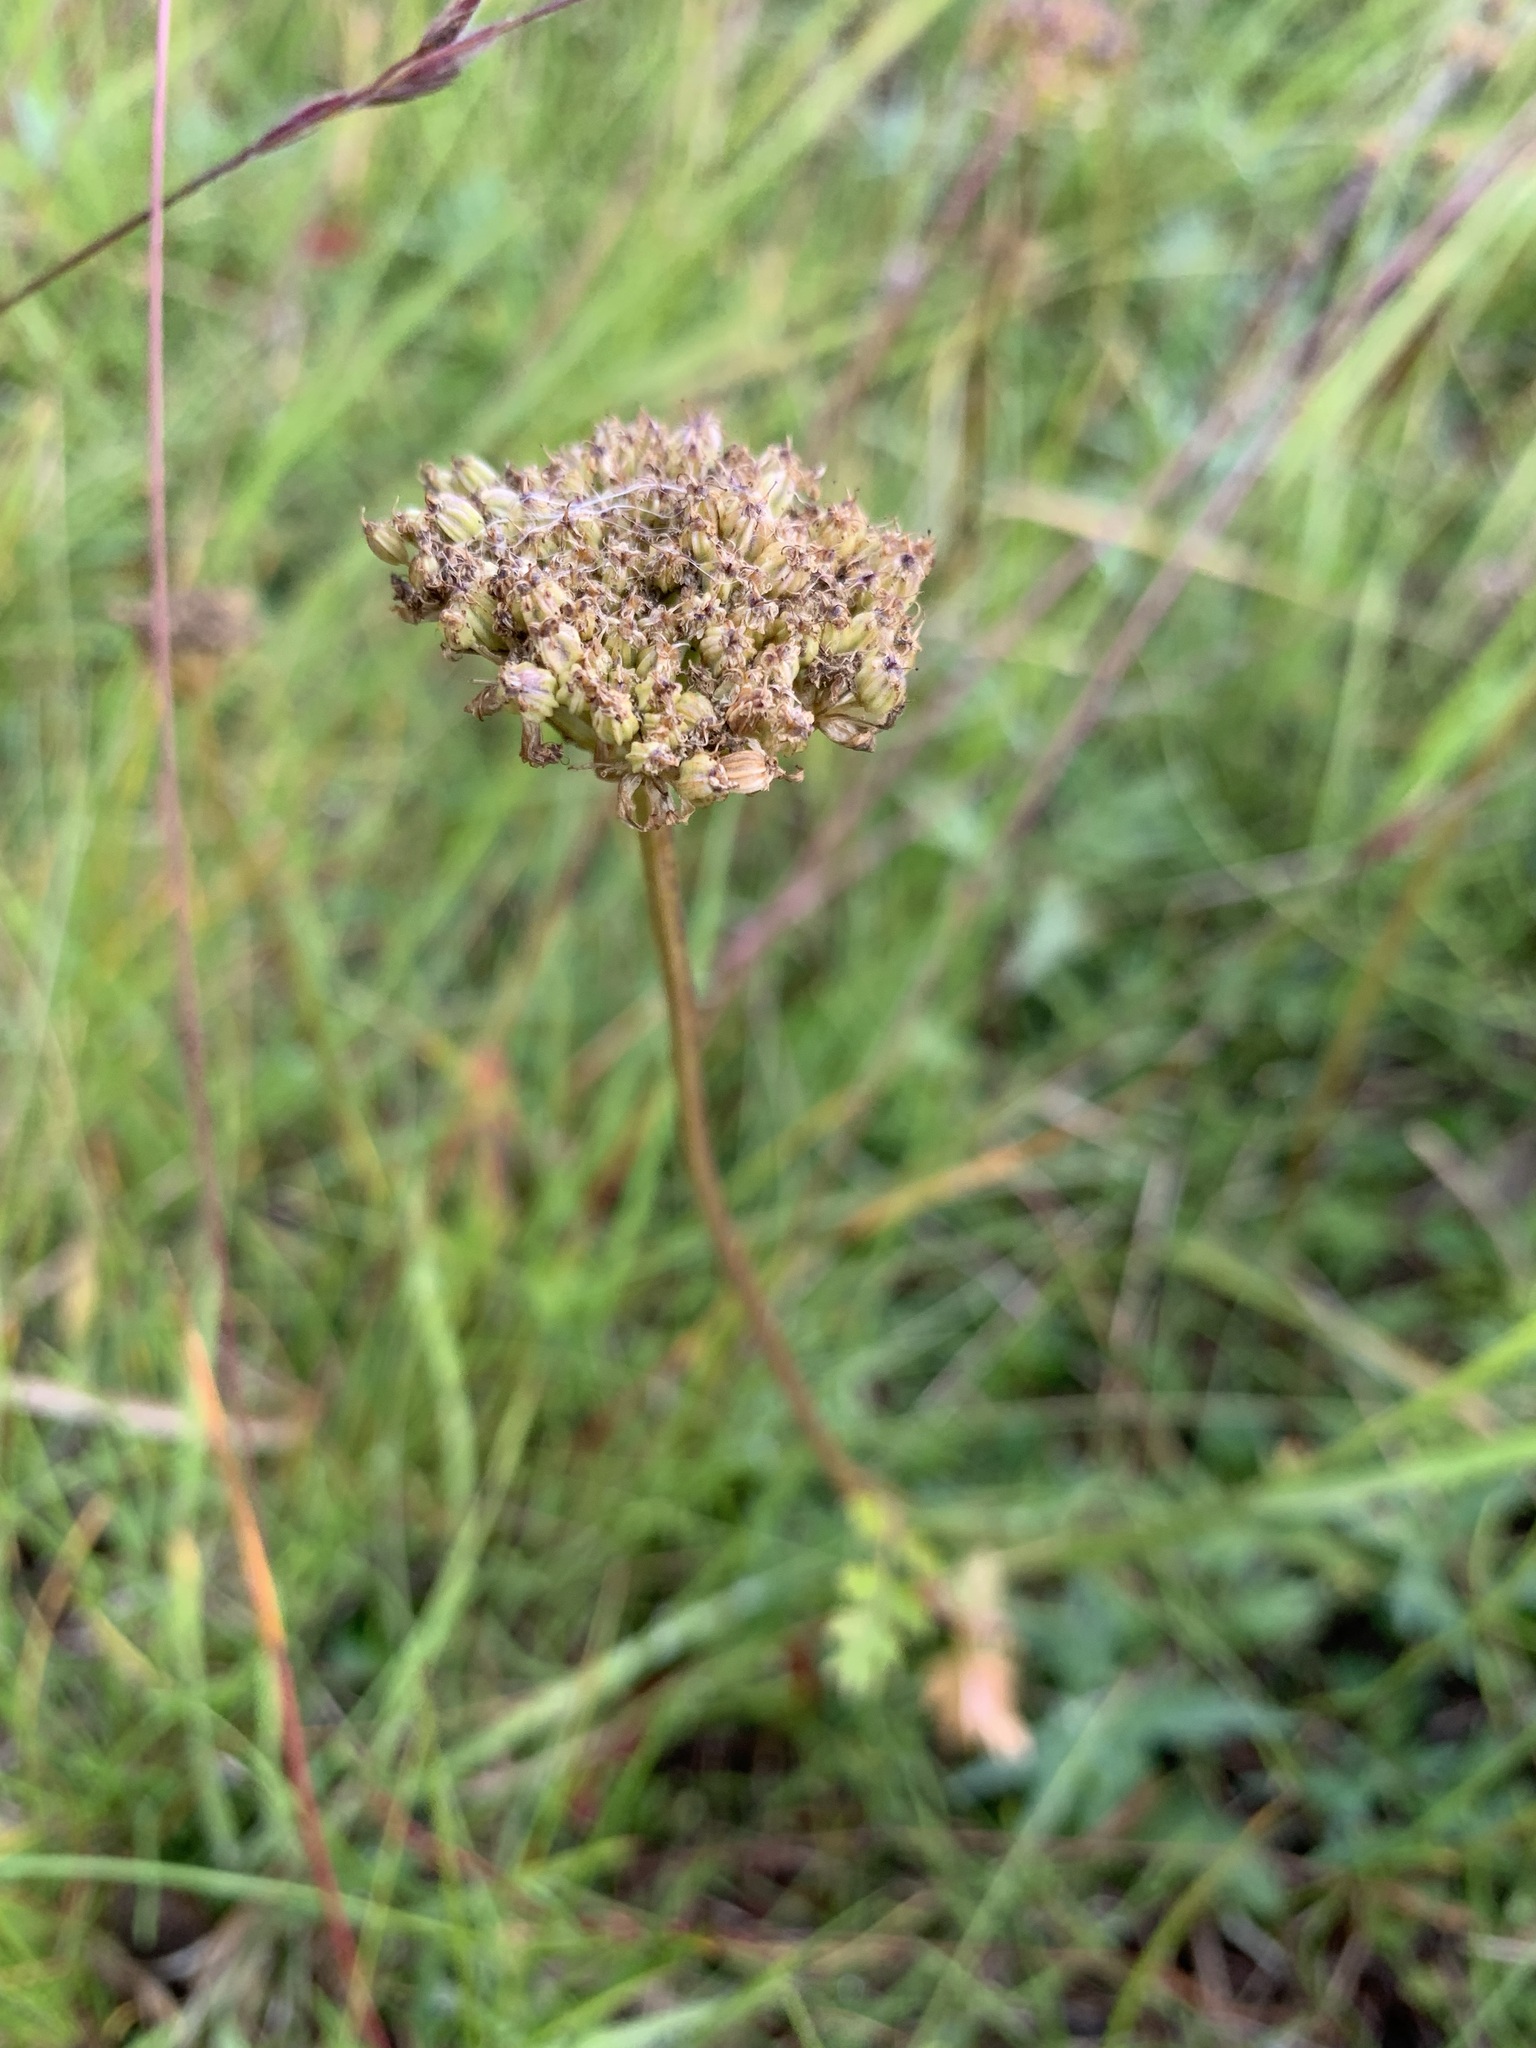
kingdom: Plantae
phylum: Tracheophyta
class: Magnoliopsida
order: Apiales
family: Apiaceae
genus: Pachypleurum
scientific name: Pachypleurum mutellinoides
